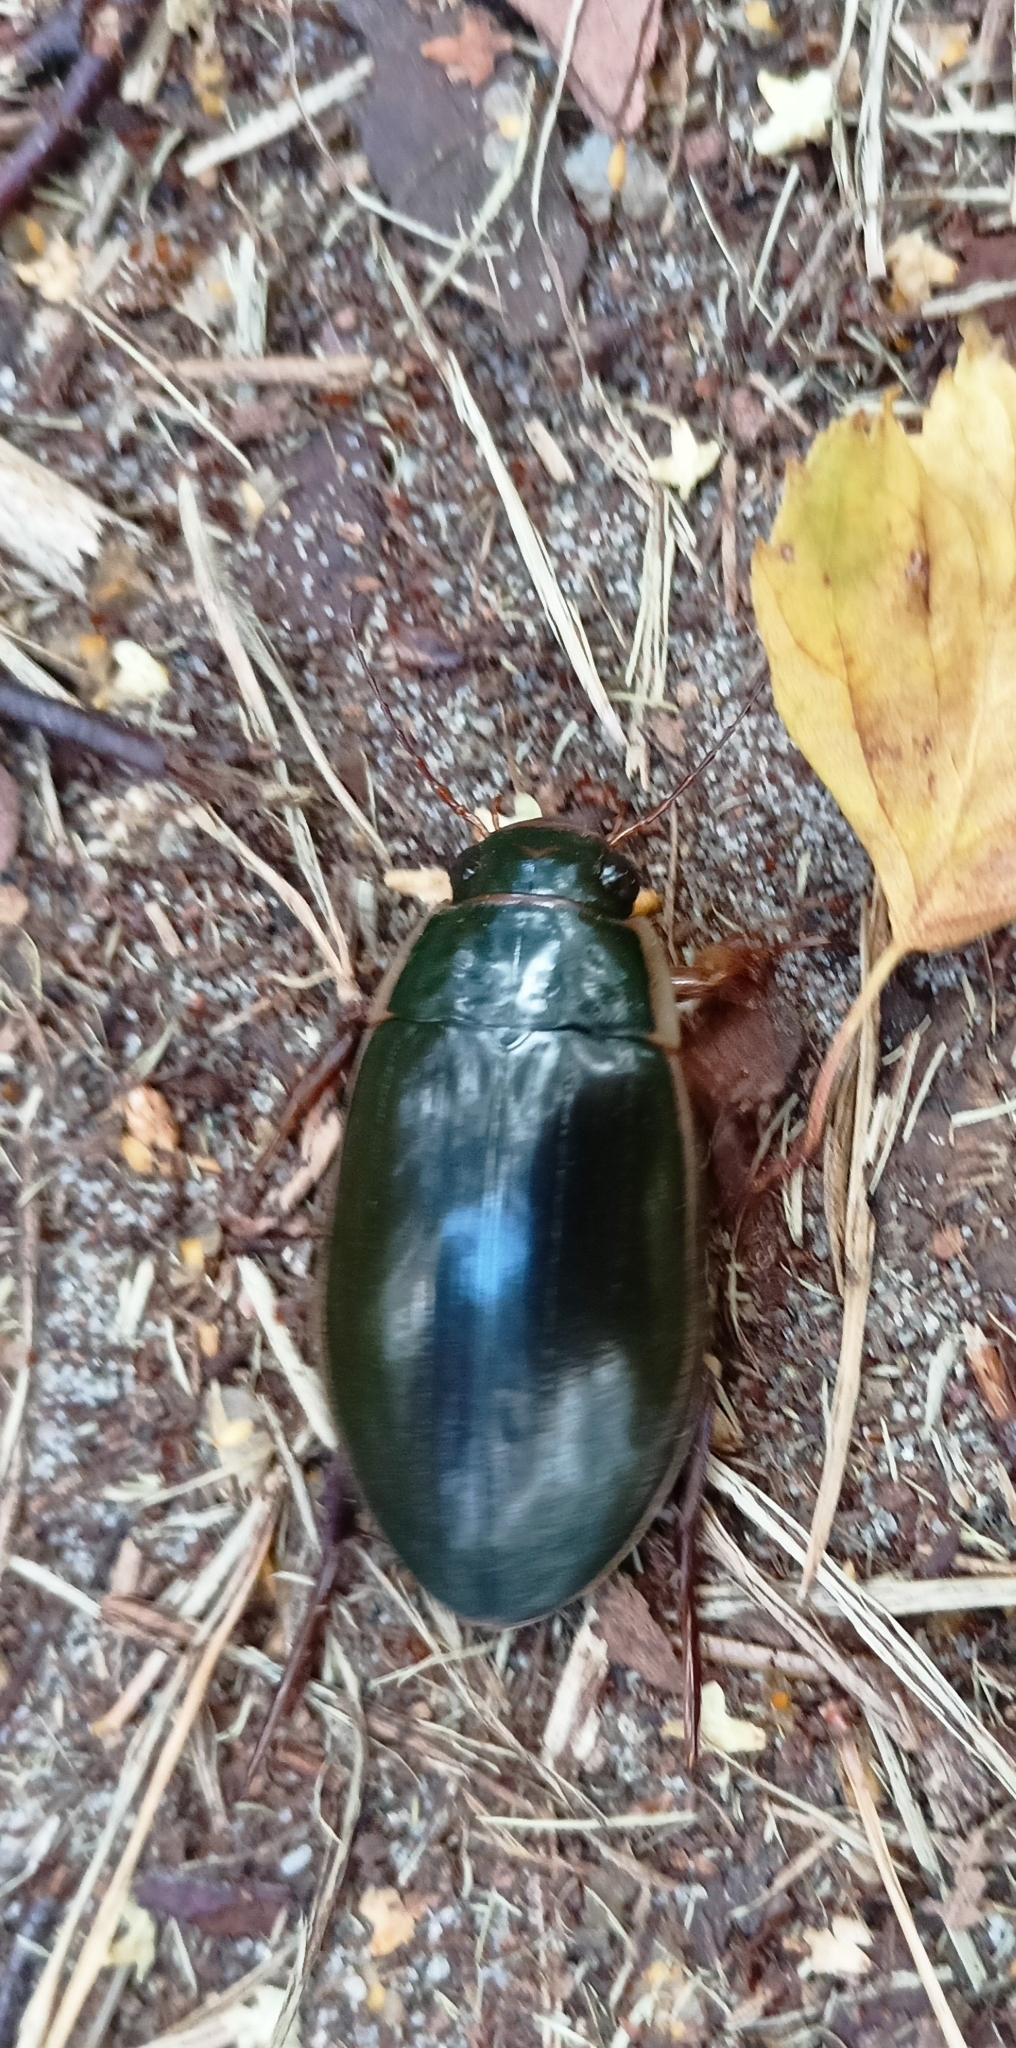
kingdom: Animalia
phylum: Arthropoda
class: Insecta
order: Coleoptera
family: Dytiscidae
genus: Dytiscus
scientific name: Dytiscus dimidiatus
